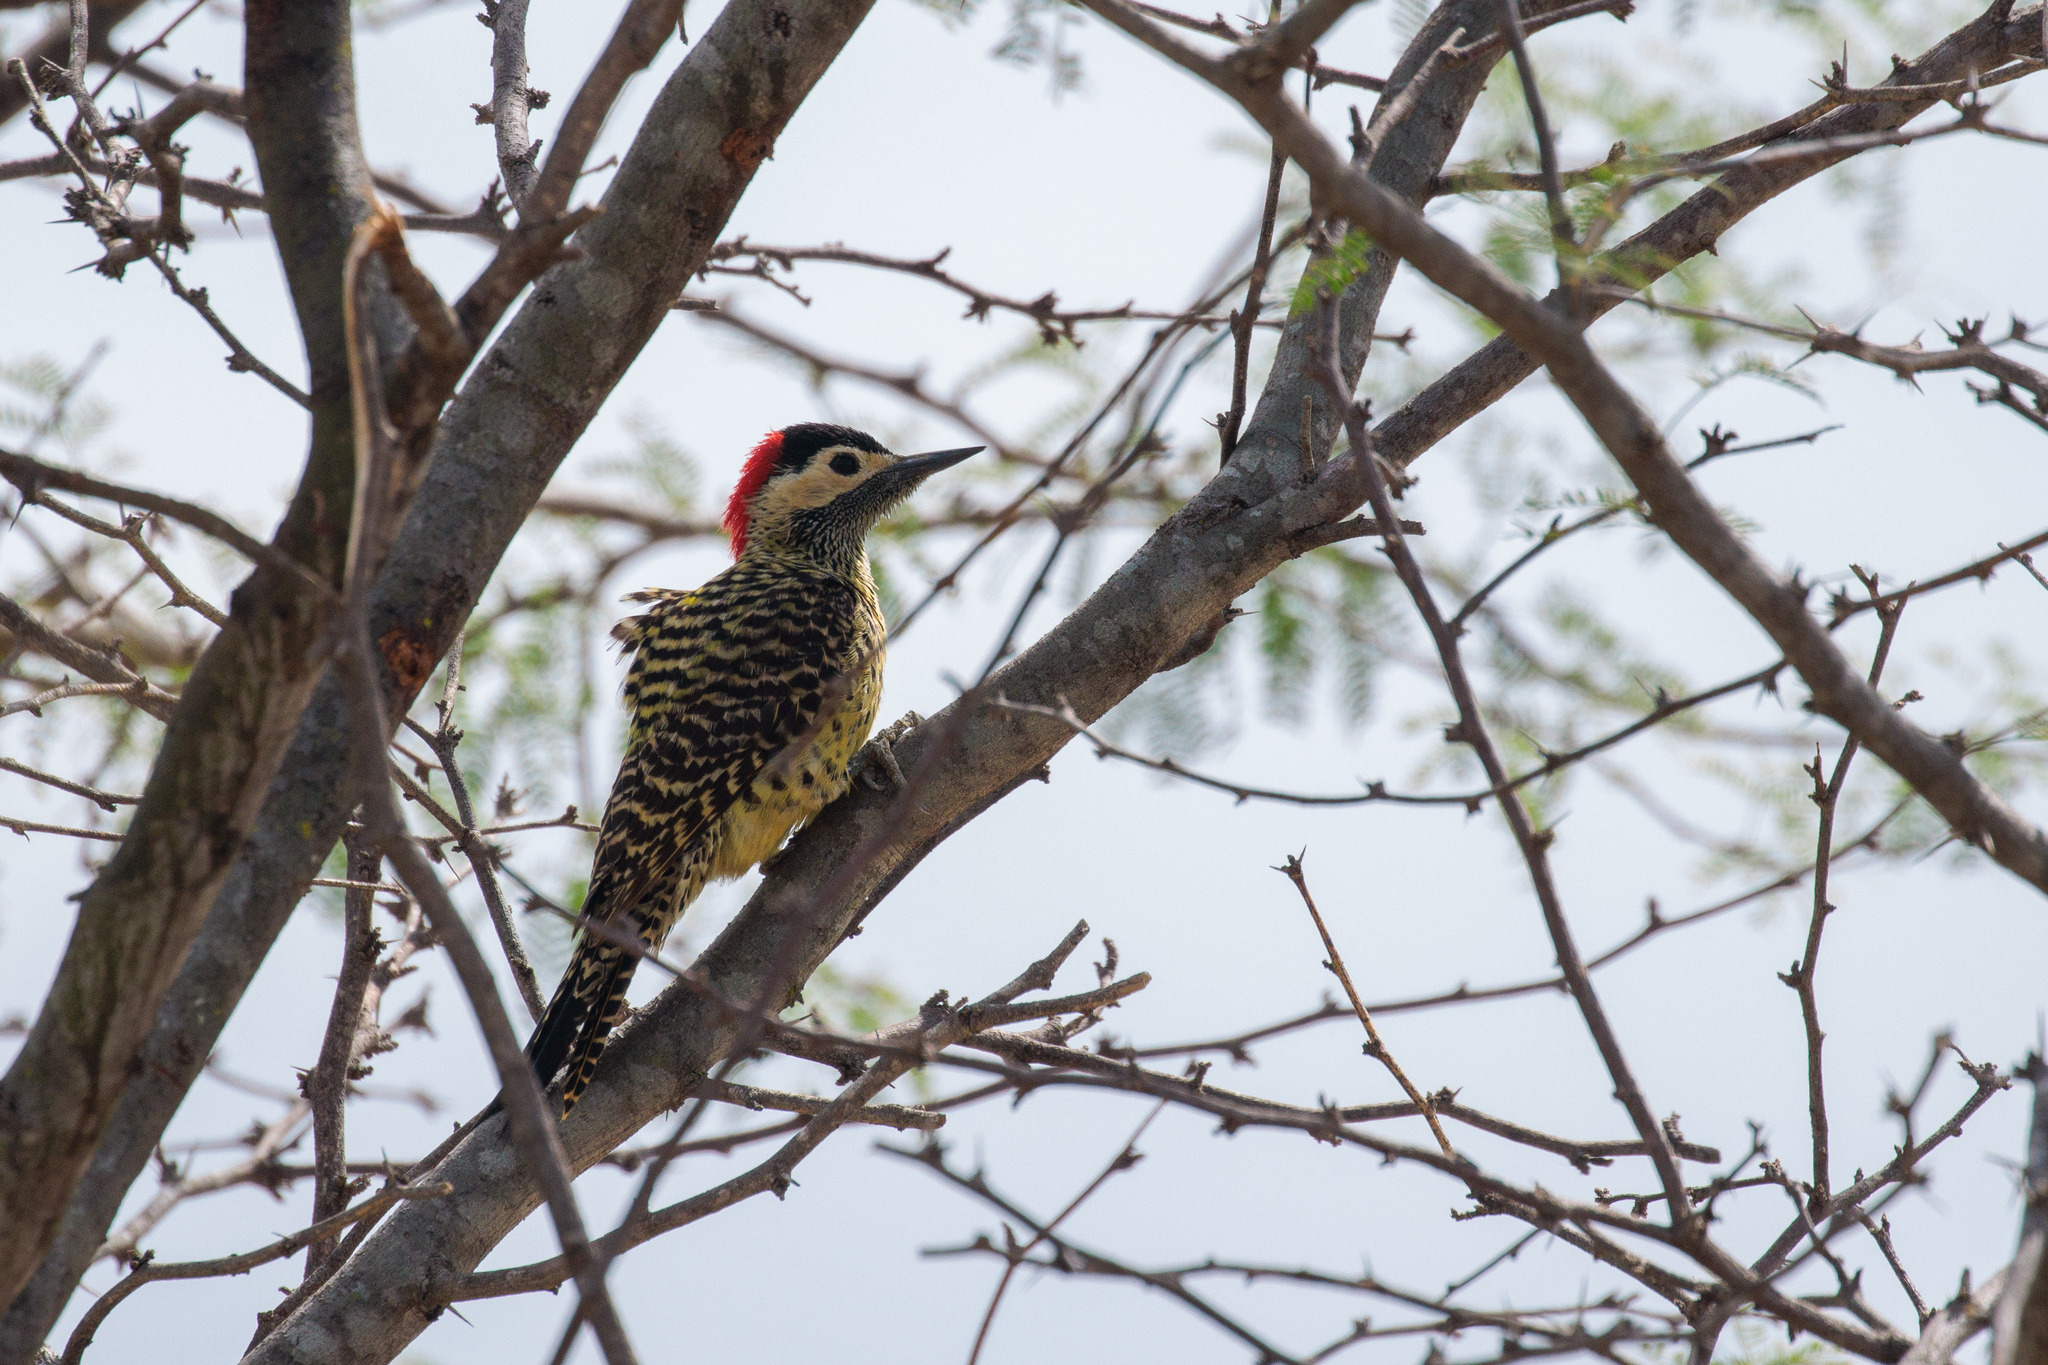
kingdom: Animalia
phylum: Chordata
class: Aves
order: Piciformes
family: Picidae
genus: Colaptes
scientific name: Colaptes melanochloros
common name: Green-barred woodpecker
